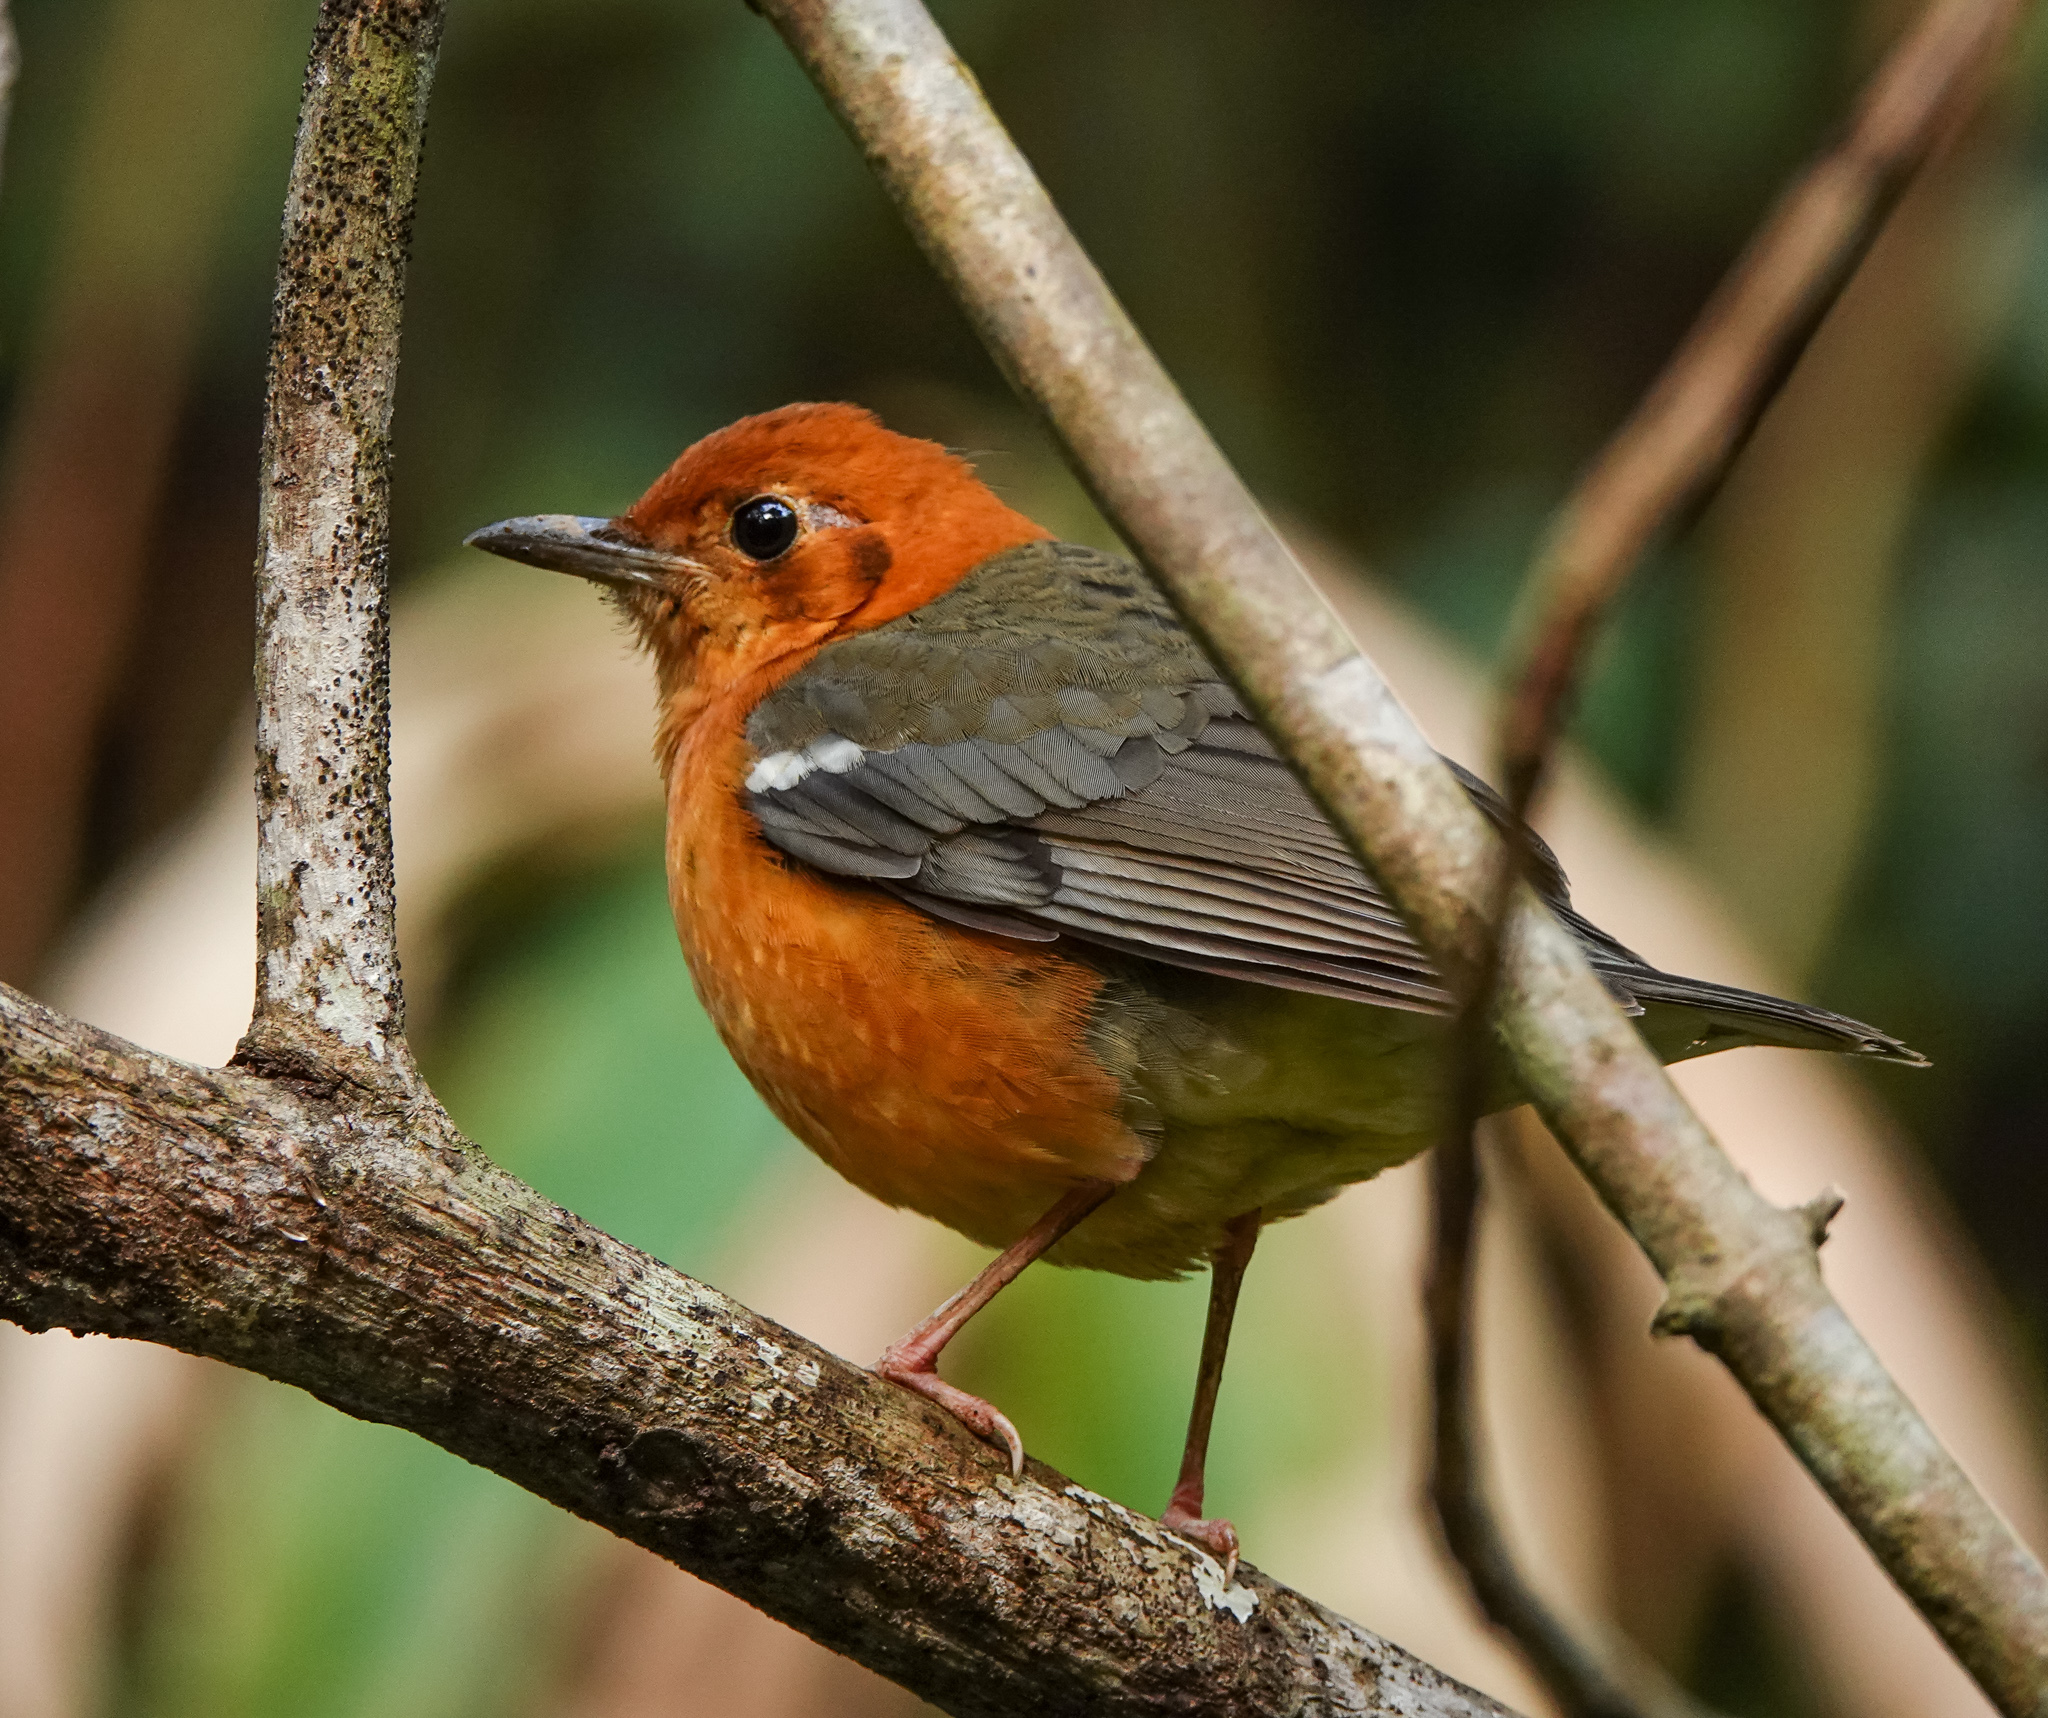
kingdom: Animalia
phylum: Chordata
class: Aves
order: Passeriformes
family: Turdidae
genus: Geokichla
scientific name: Geokichla citrina
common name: Orange-headed thrush
